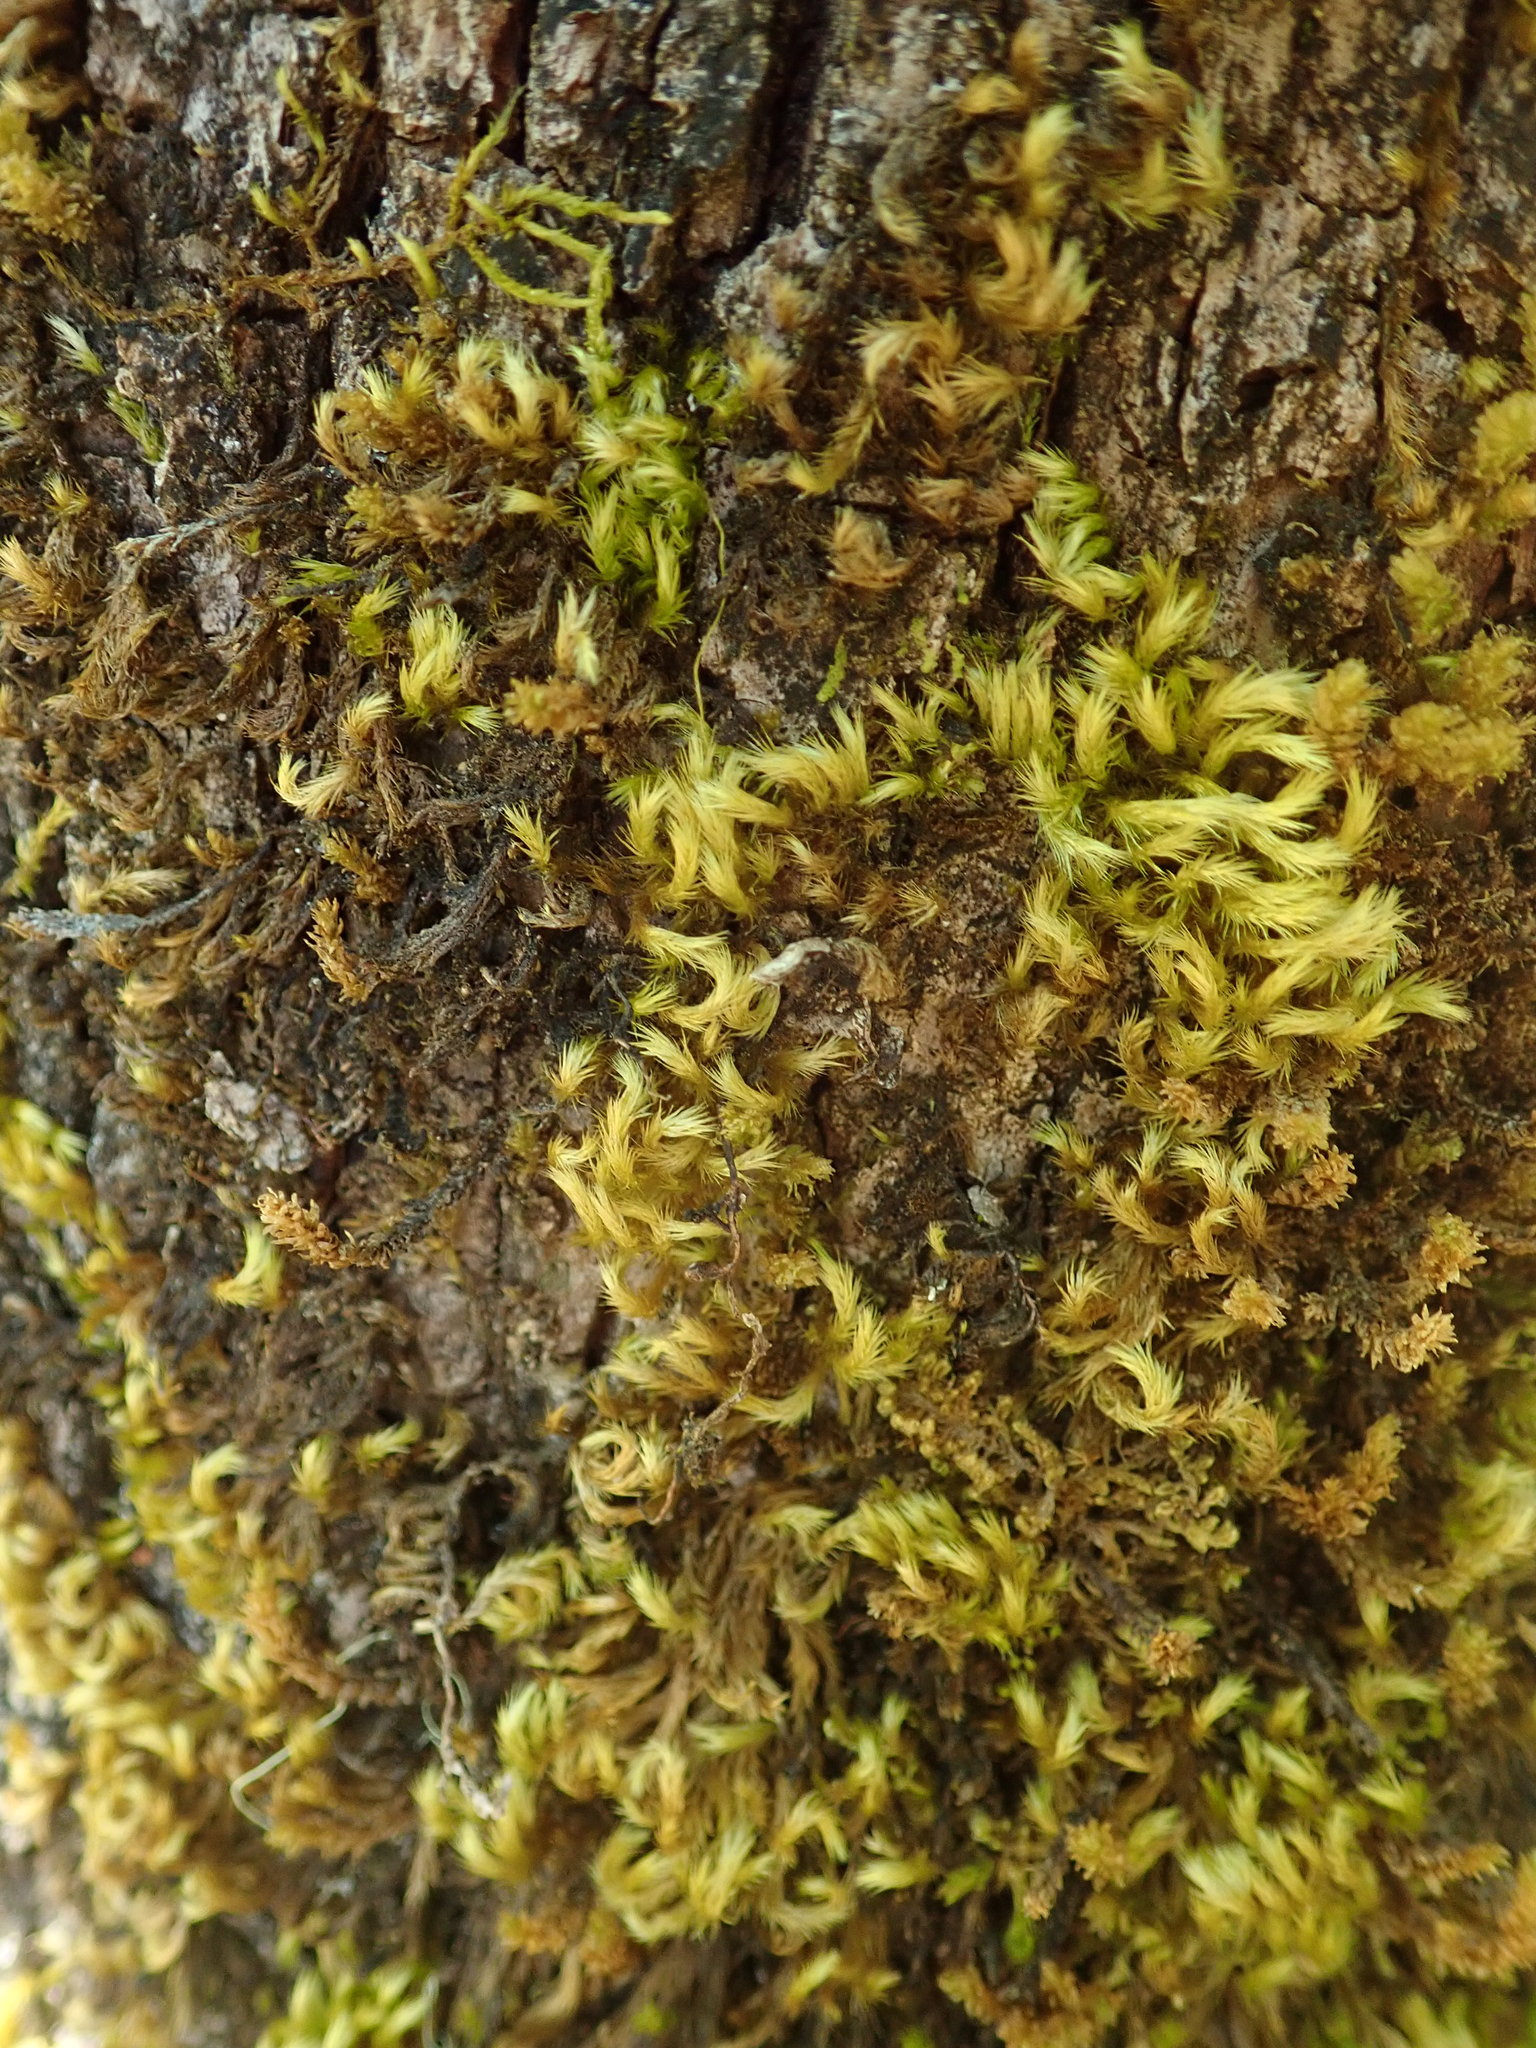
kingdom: Plantae
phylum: Bryophyta
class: Bryopsida
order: Hypnales
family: Brachytheciaceae
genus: Homalothecium
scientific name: Homalothecium fulgescens
